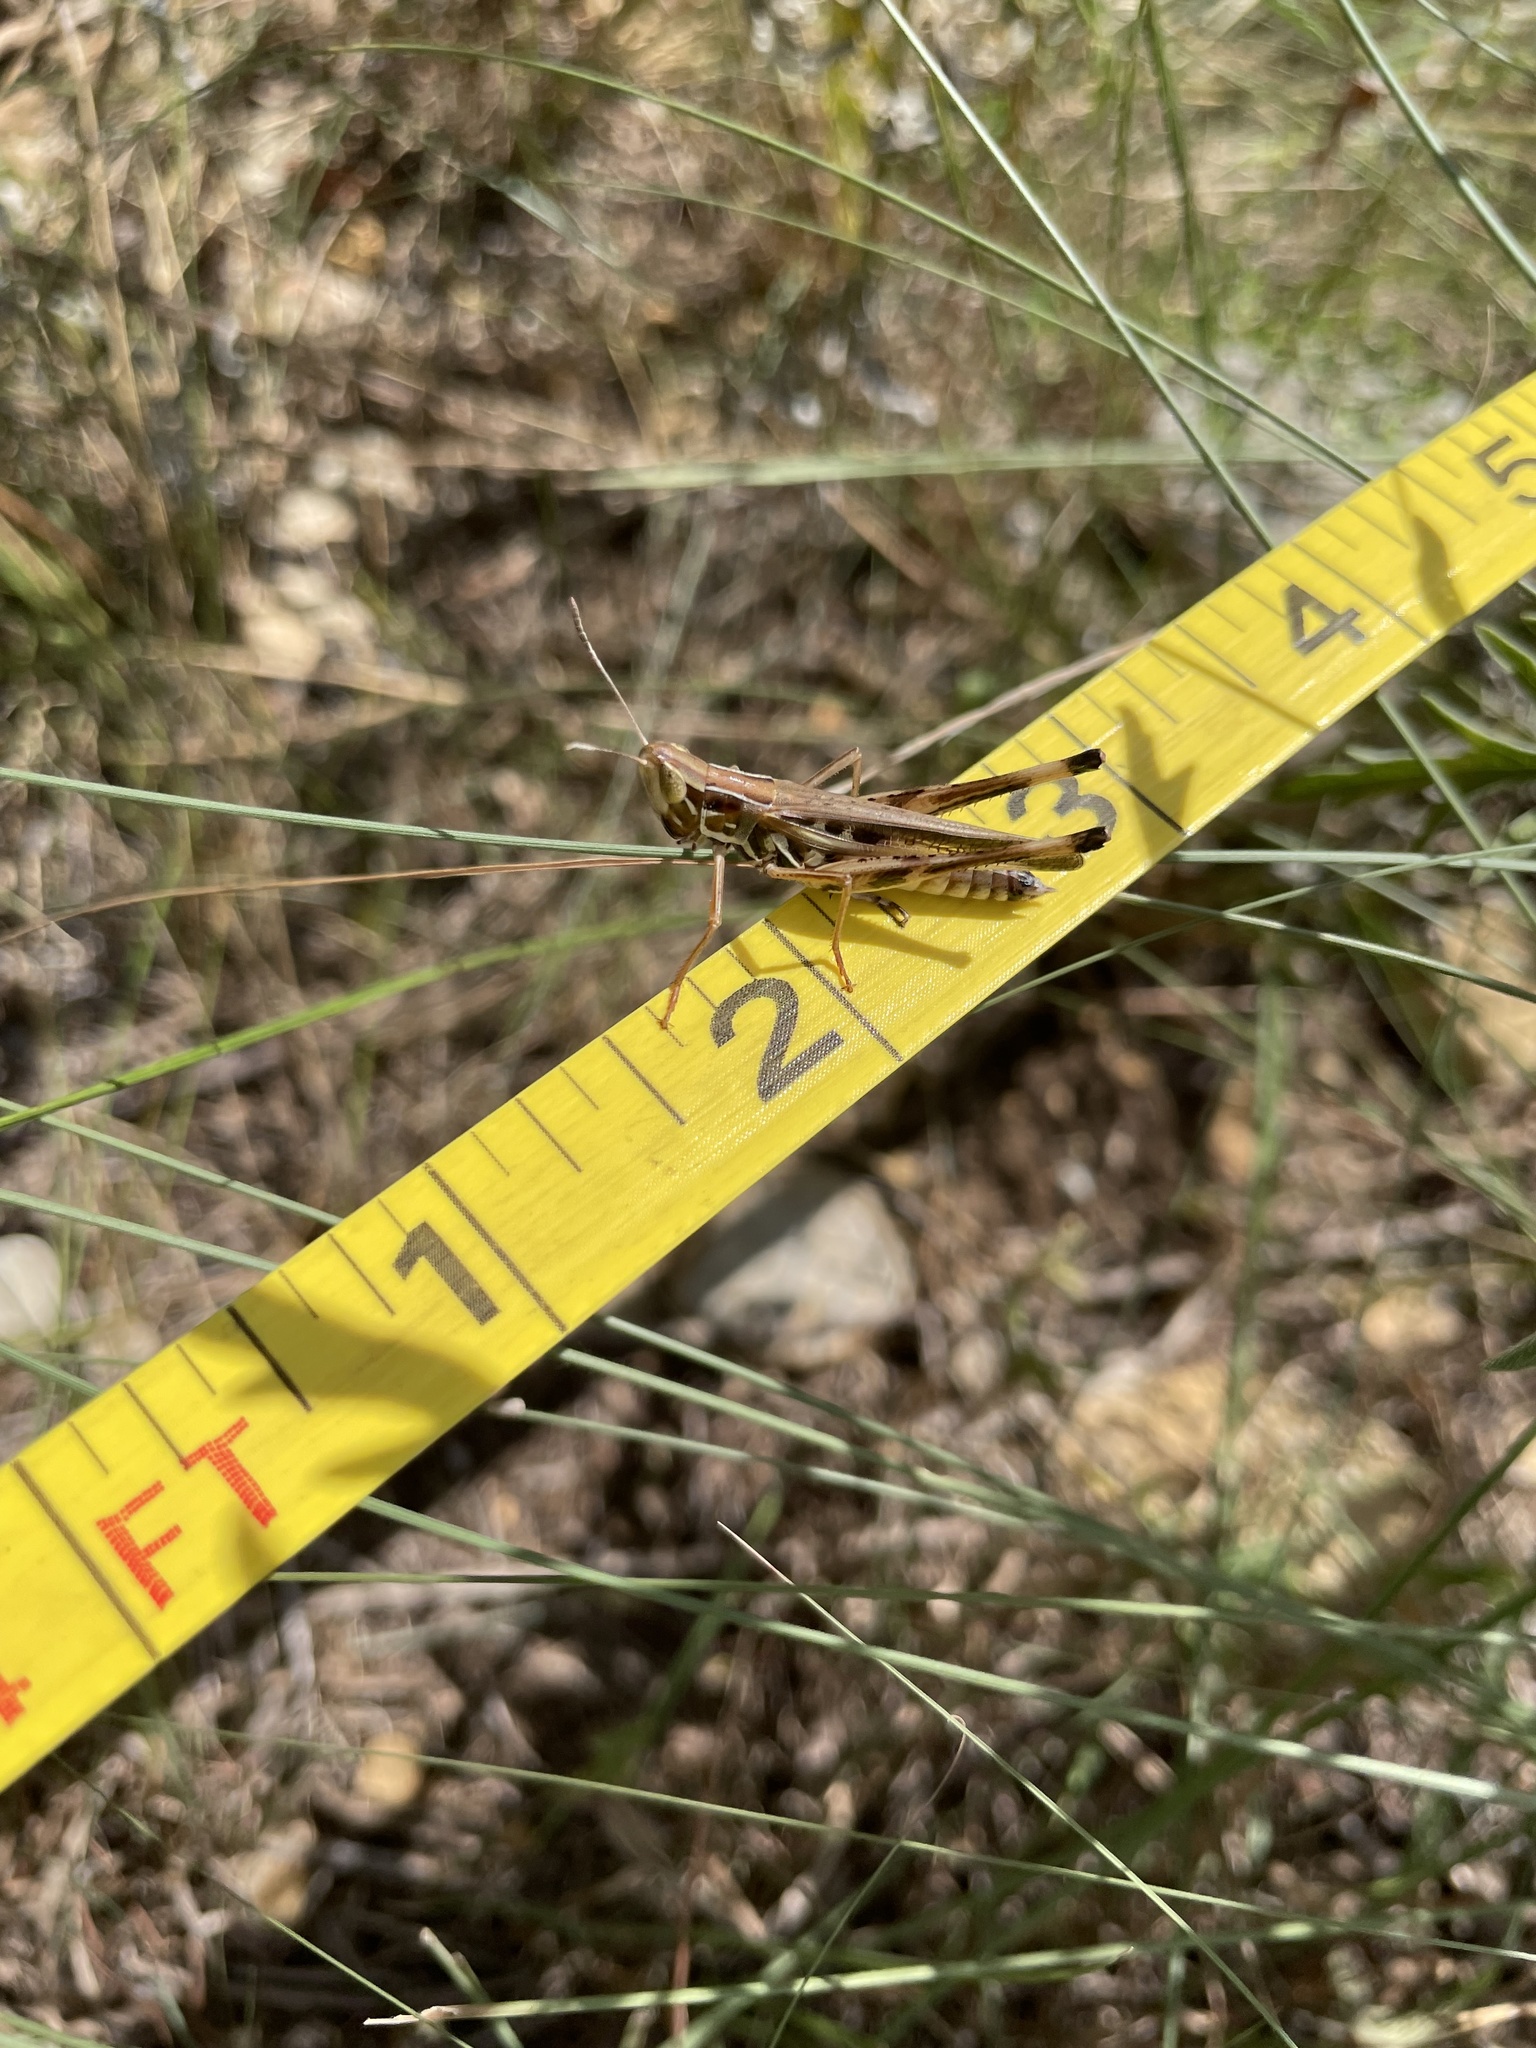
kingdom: Animalia
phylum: Arthropoda
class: Insecta
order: Orthoptera
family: Acrididae
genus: Syrbula
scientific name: Syrbula admirabilis
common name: Handsome grasshopper
